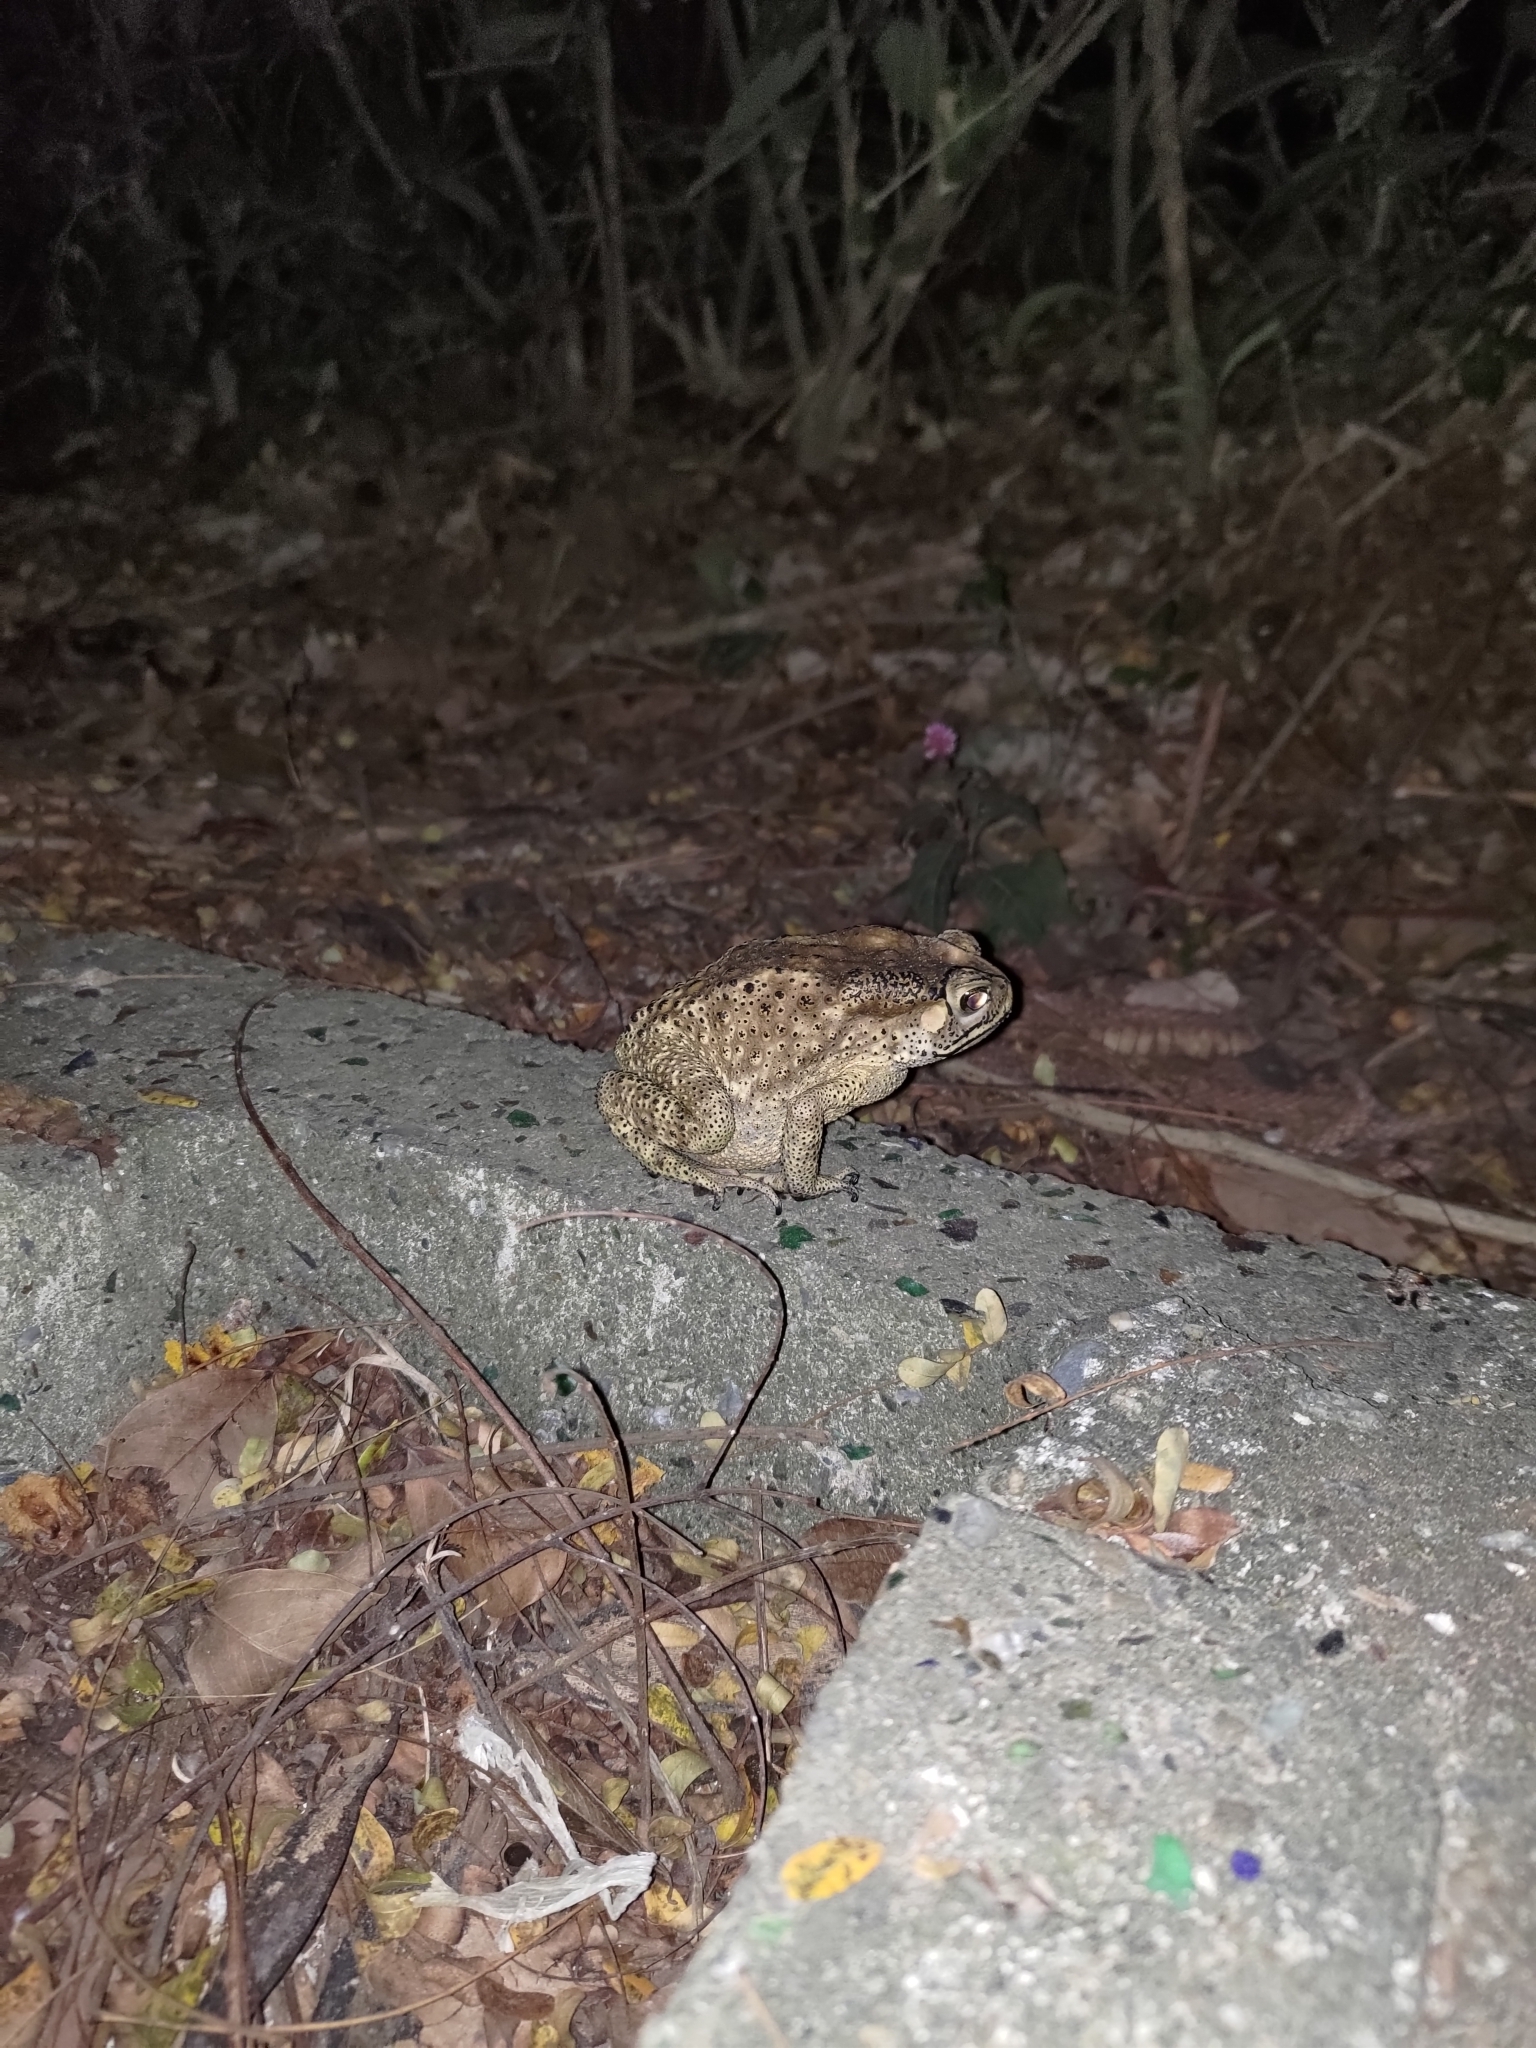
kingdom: Animalia
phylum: Chordata
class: Amphibia
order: Anura
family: Bufonidae
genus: Duttaphrynus
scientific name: Duttaphrynus melanostictus
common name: Common sunda toad
